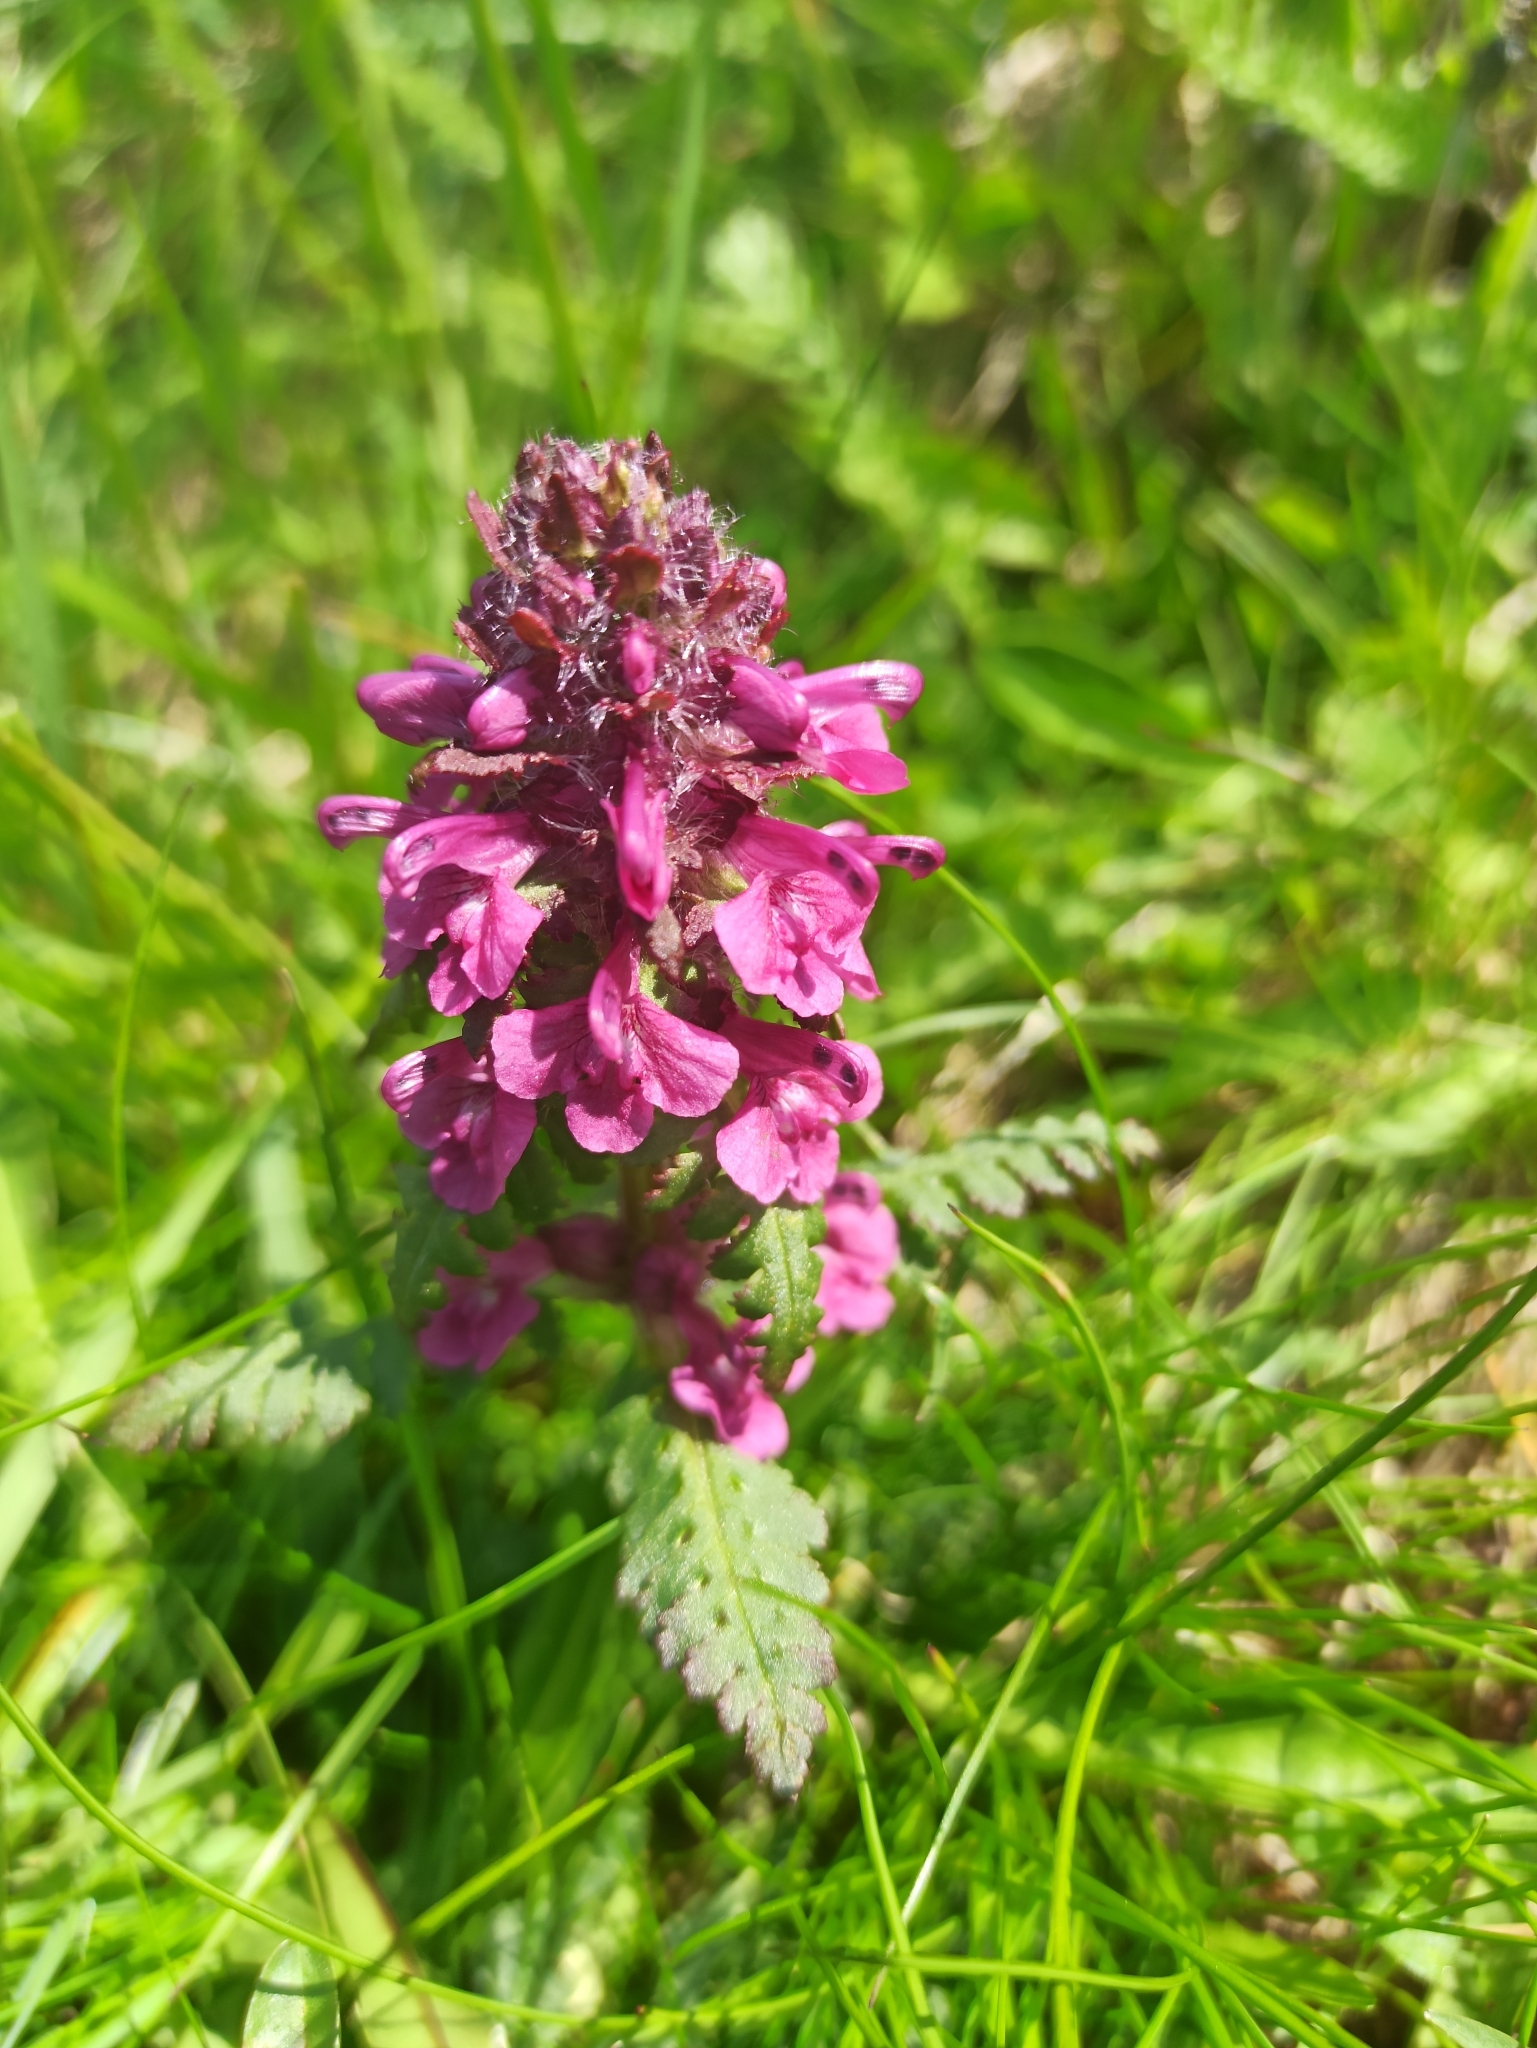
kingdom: Plantae
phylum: Tracheophyta
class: Magnoliopsida
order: Lamiales
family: Orobanchaceae
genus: Pedicularis
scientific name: Pedicularis verticillata
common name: Whorled lousewort
